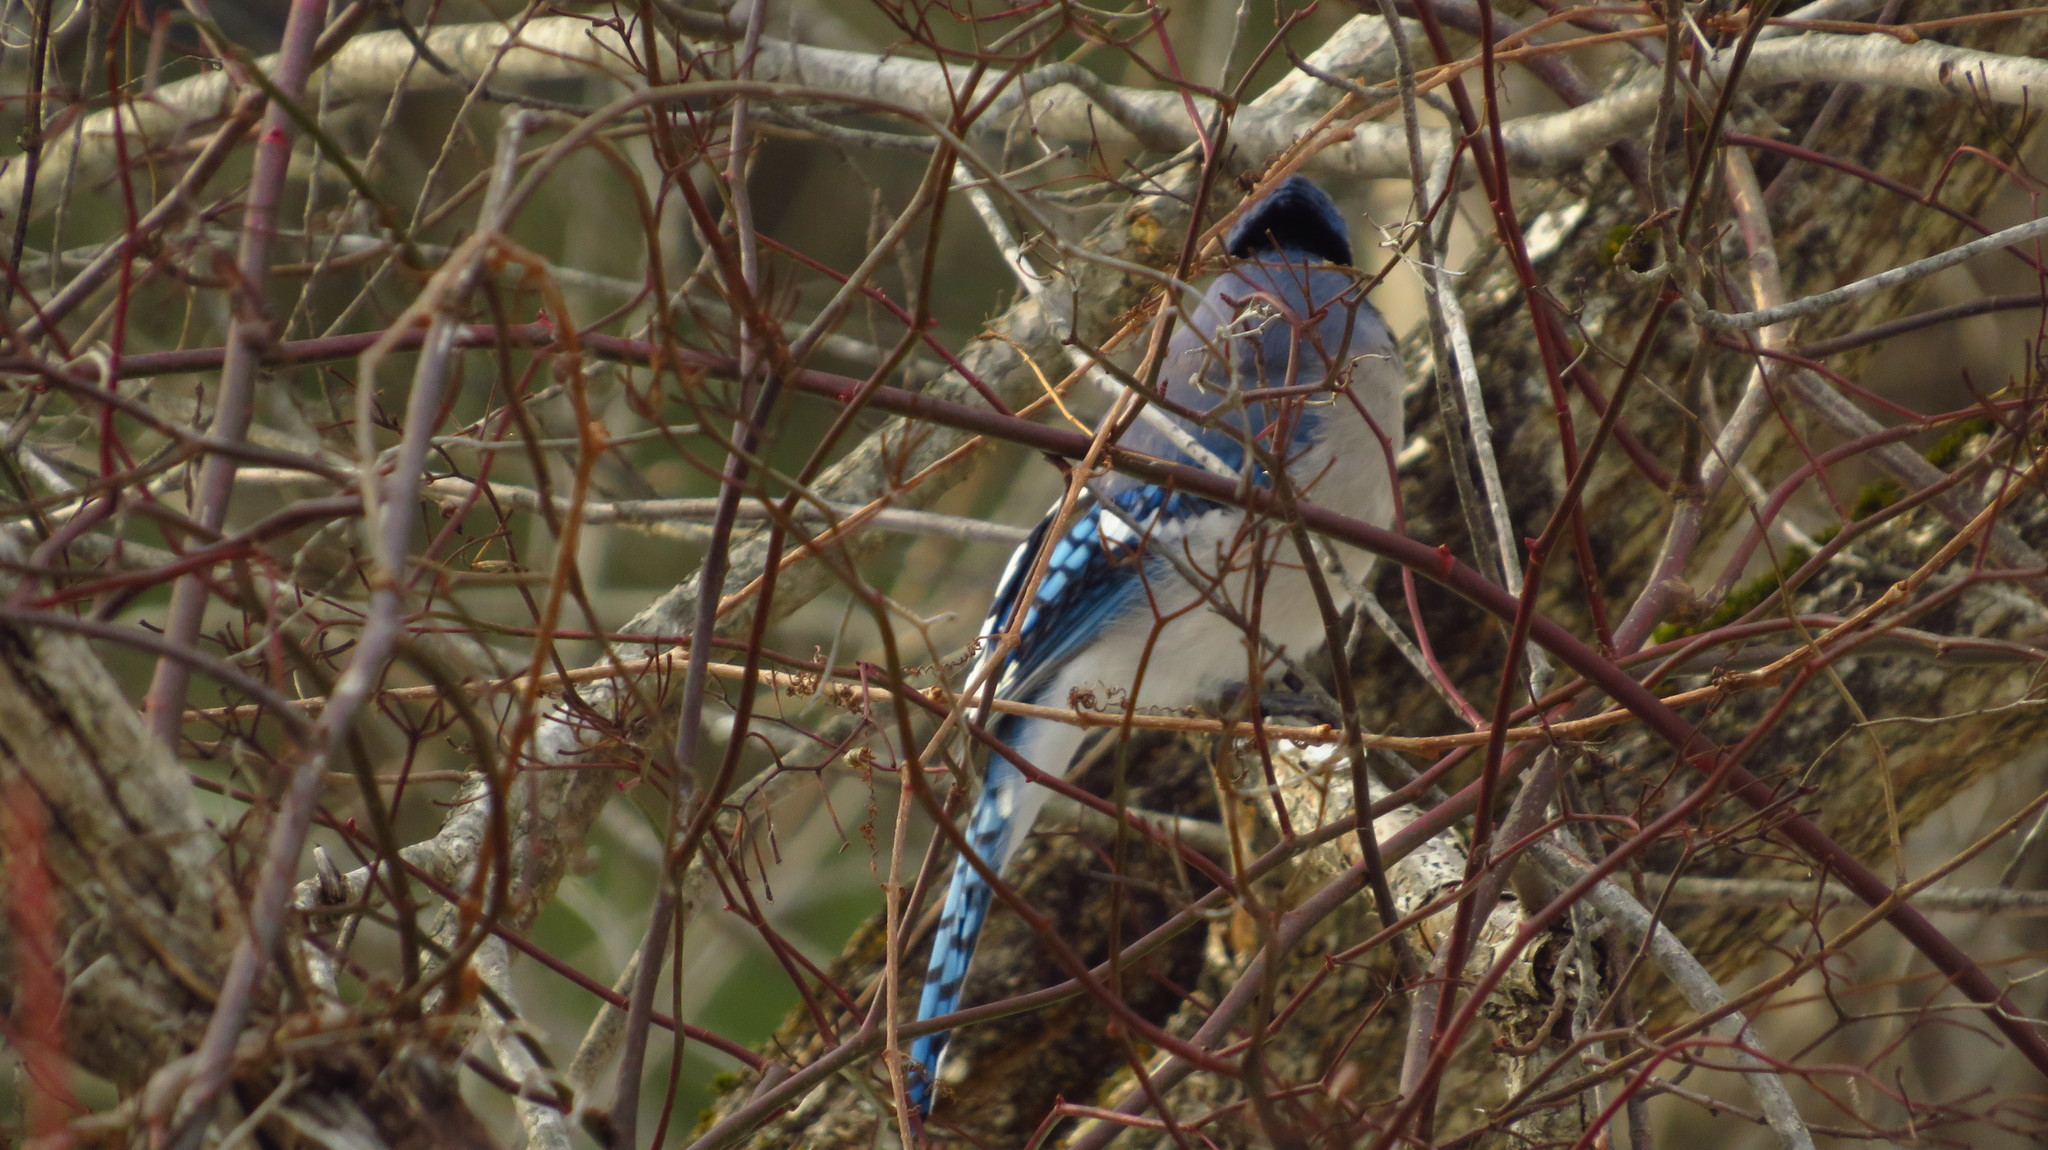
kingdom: Animalia
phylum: Chordata
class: Aves
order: Passeriformes
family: Corvidae
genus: Cyanocitta
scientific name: Cyanocitta cristata
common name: Blue jay
